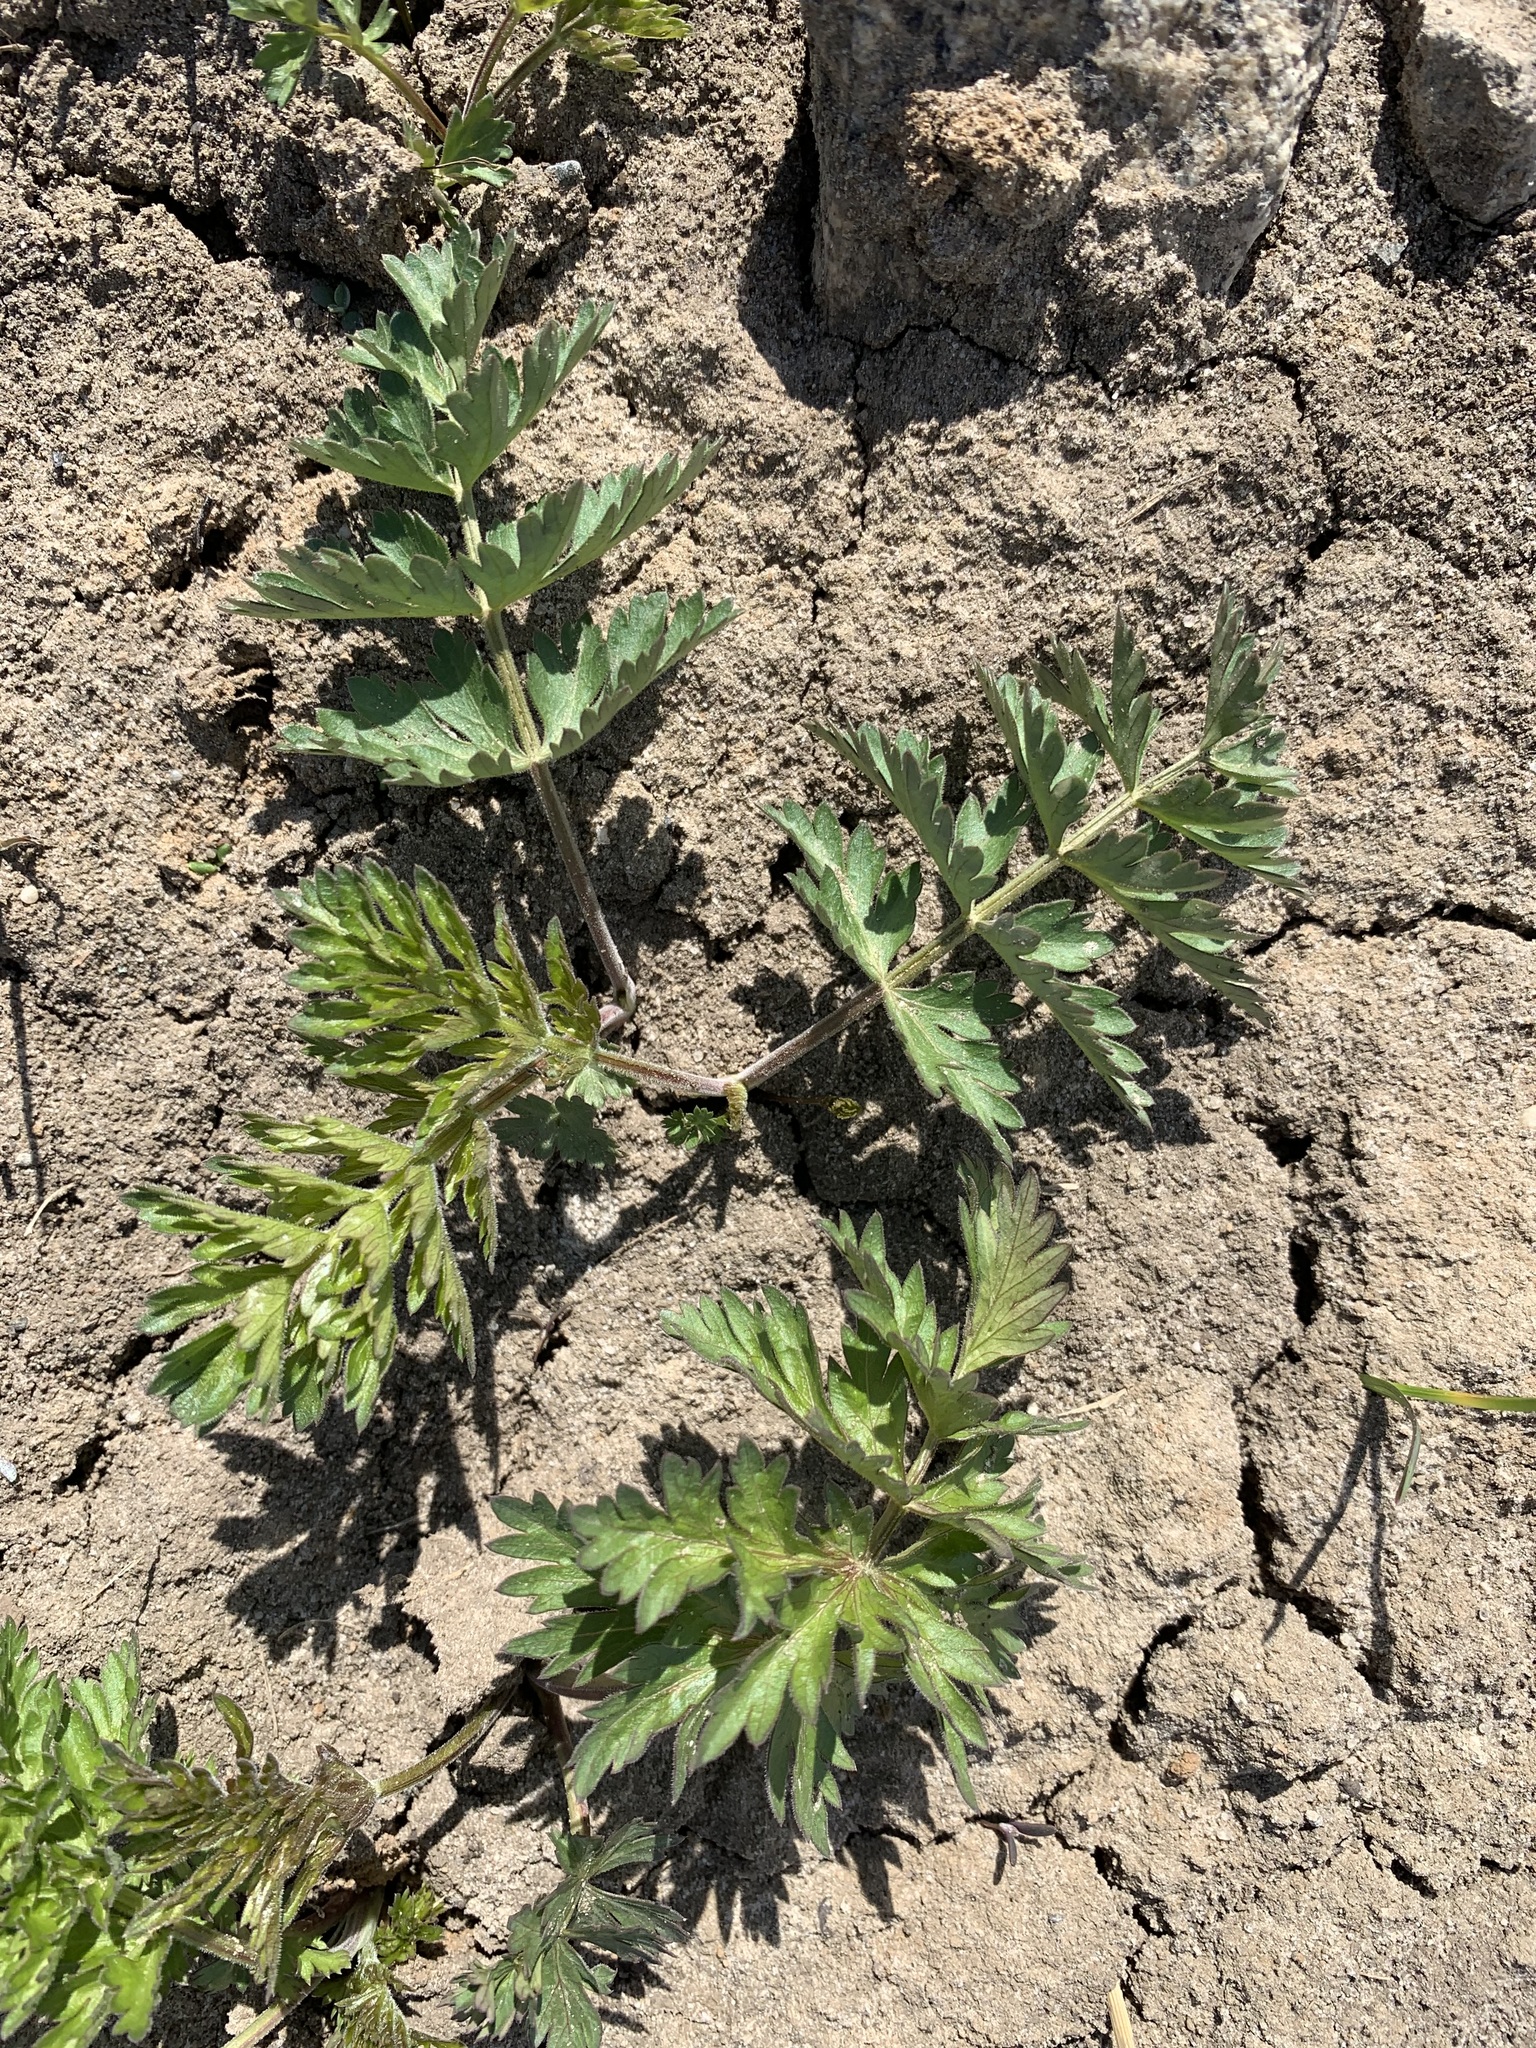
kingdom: Plantae
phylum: Tracheophyta
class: Magnoliopsida
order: Apiales
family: Apiaceae
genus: Seseli
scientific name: Seseli libanotis
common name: Mooncarrot
